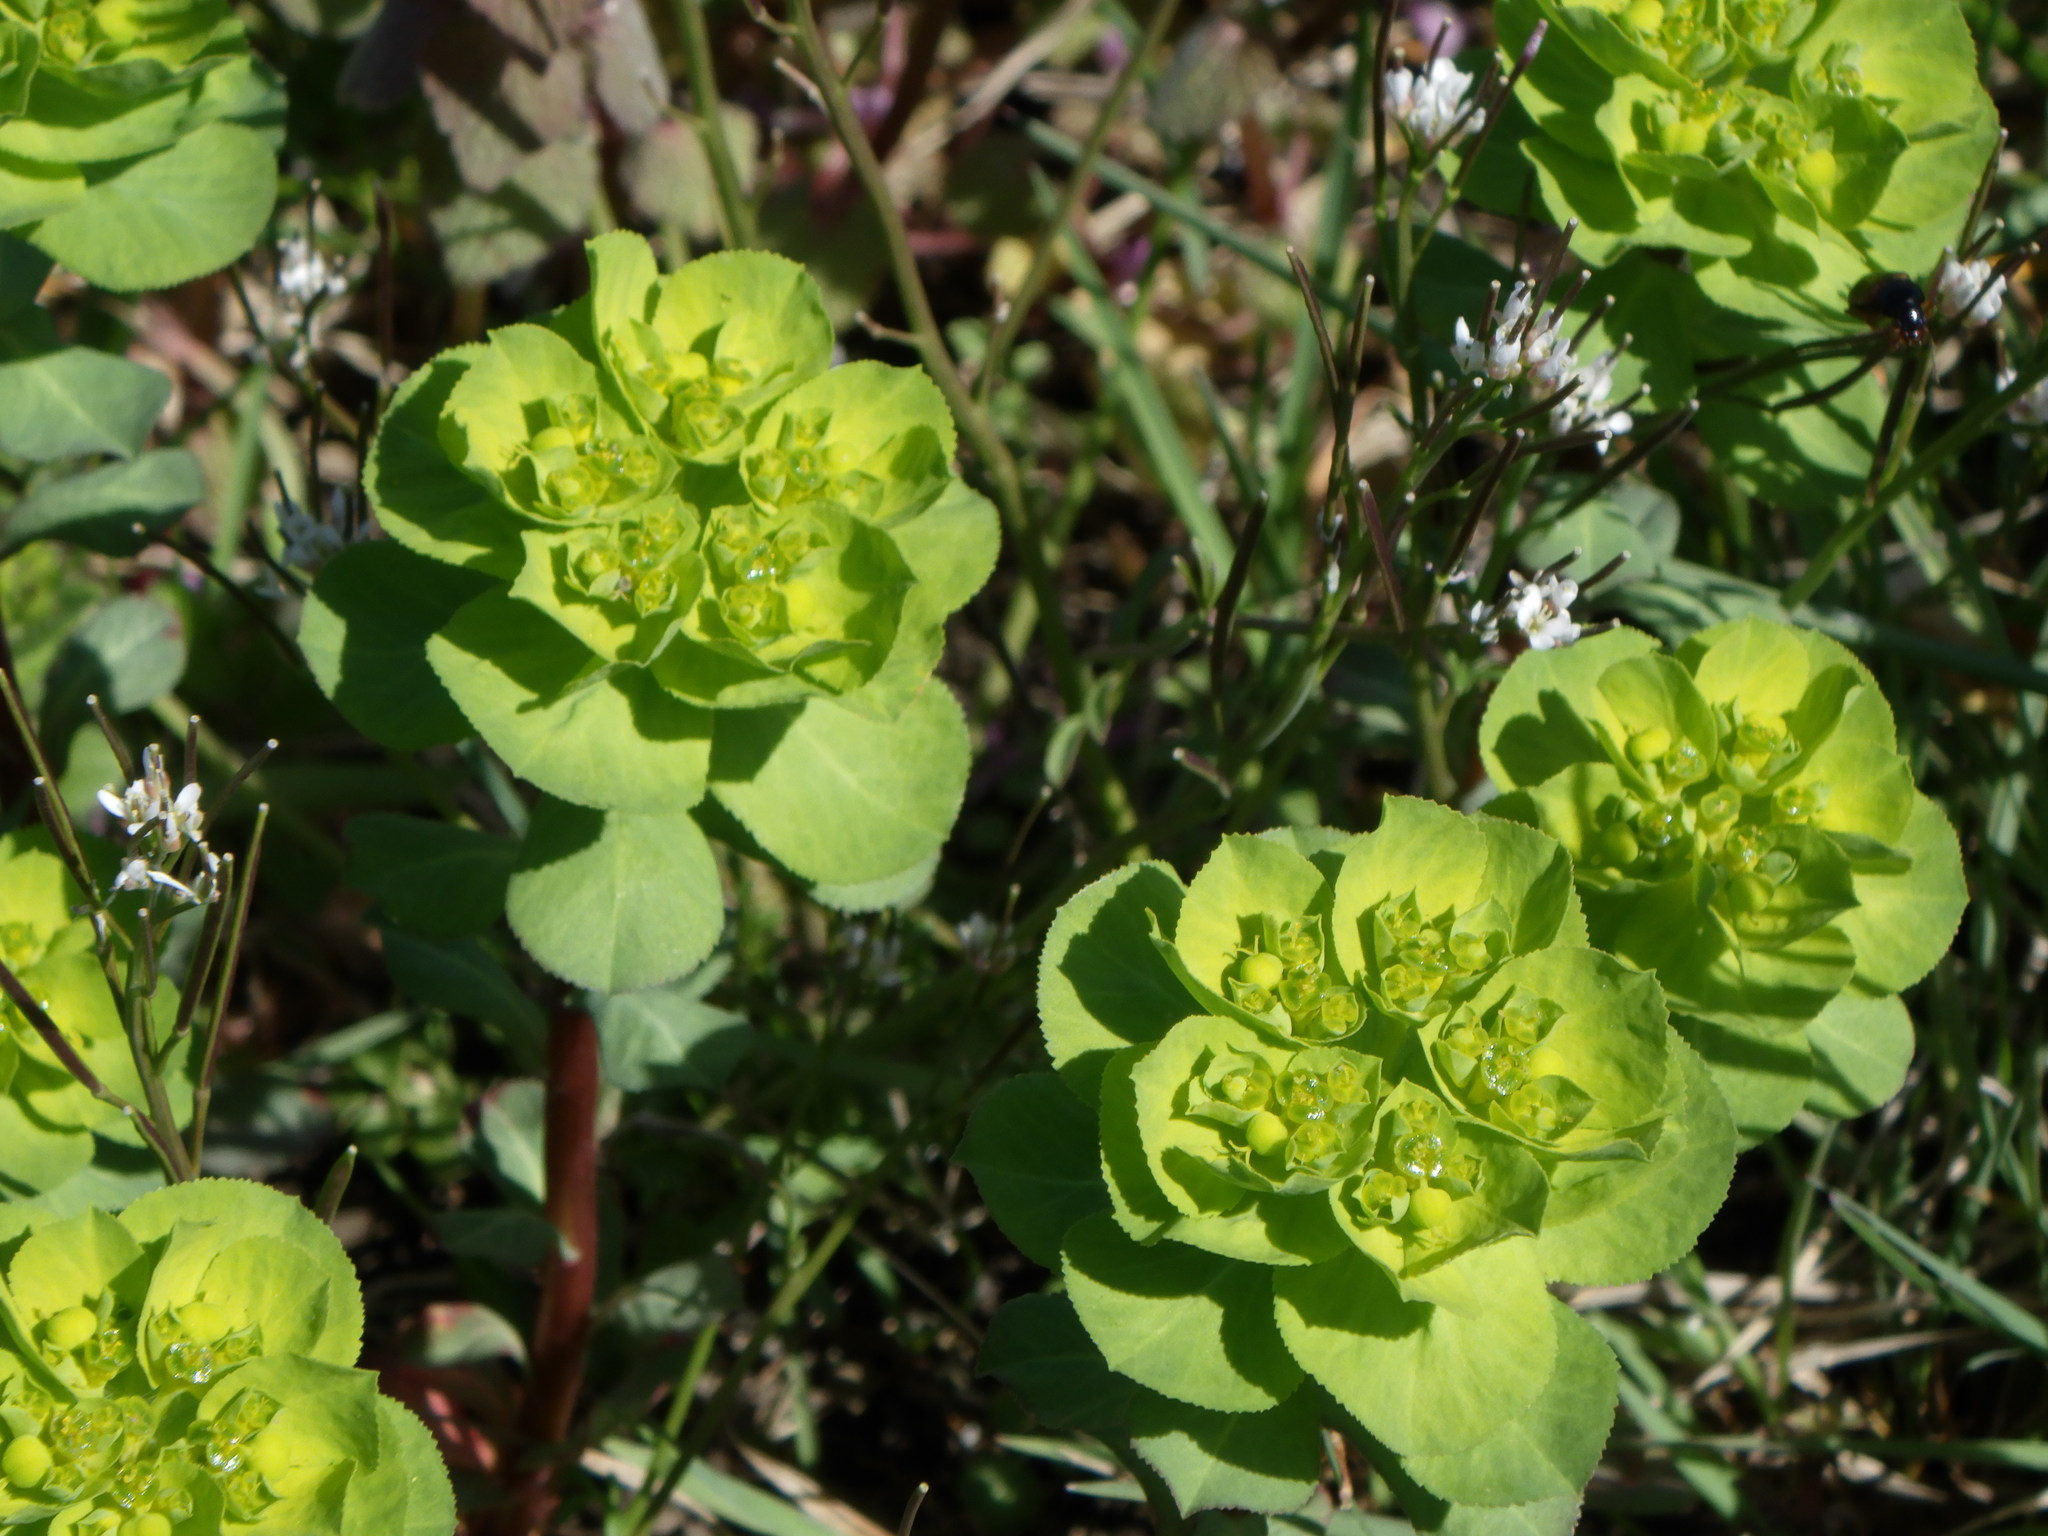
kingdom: Plantae
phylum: Tracheophyta
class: Magnoliopsida
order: Malpighiales
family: Euphorbiaceae
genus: Euphorbia
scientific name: Euphorbia helioscopia
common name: Sun spurge
